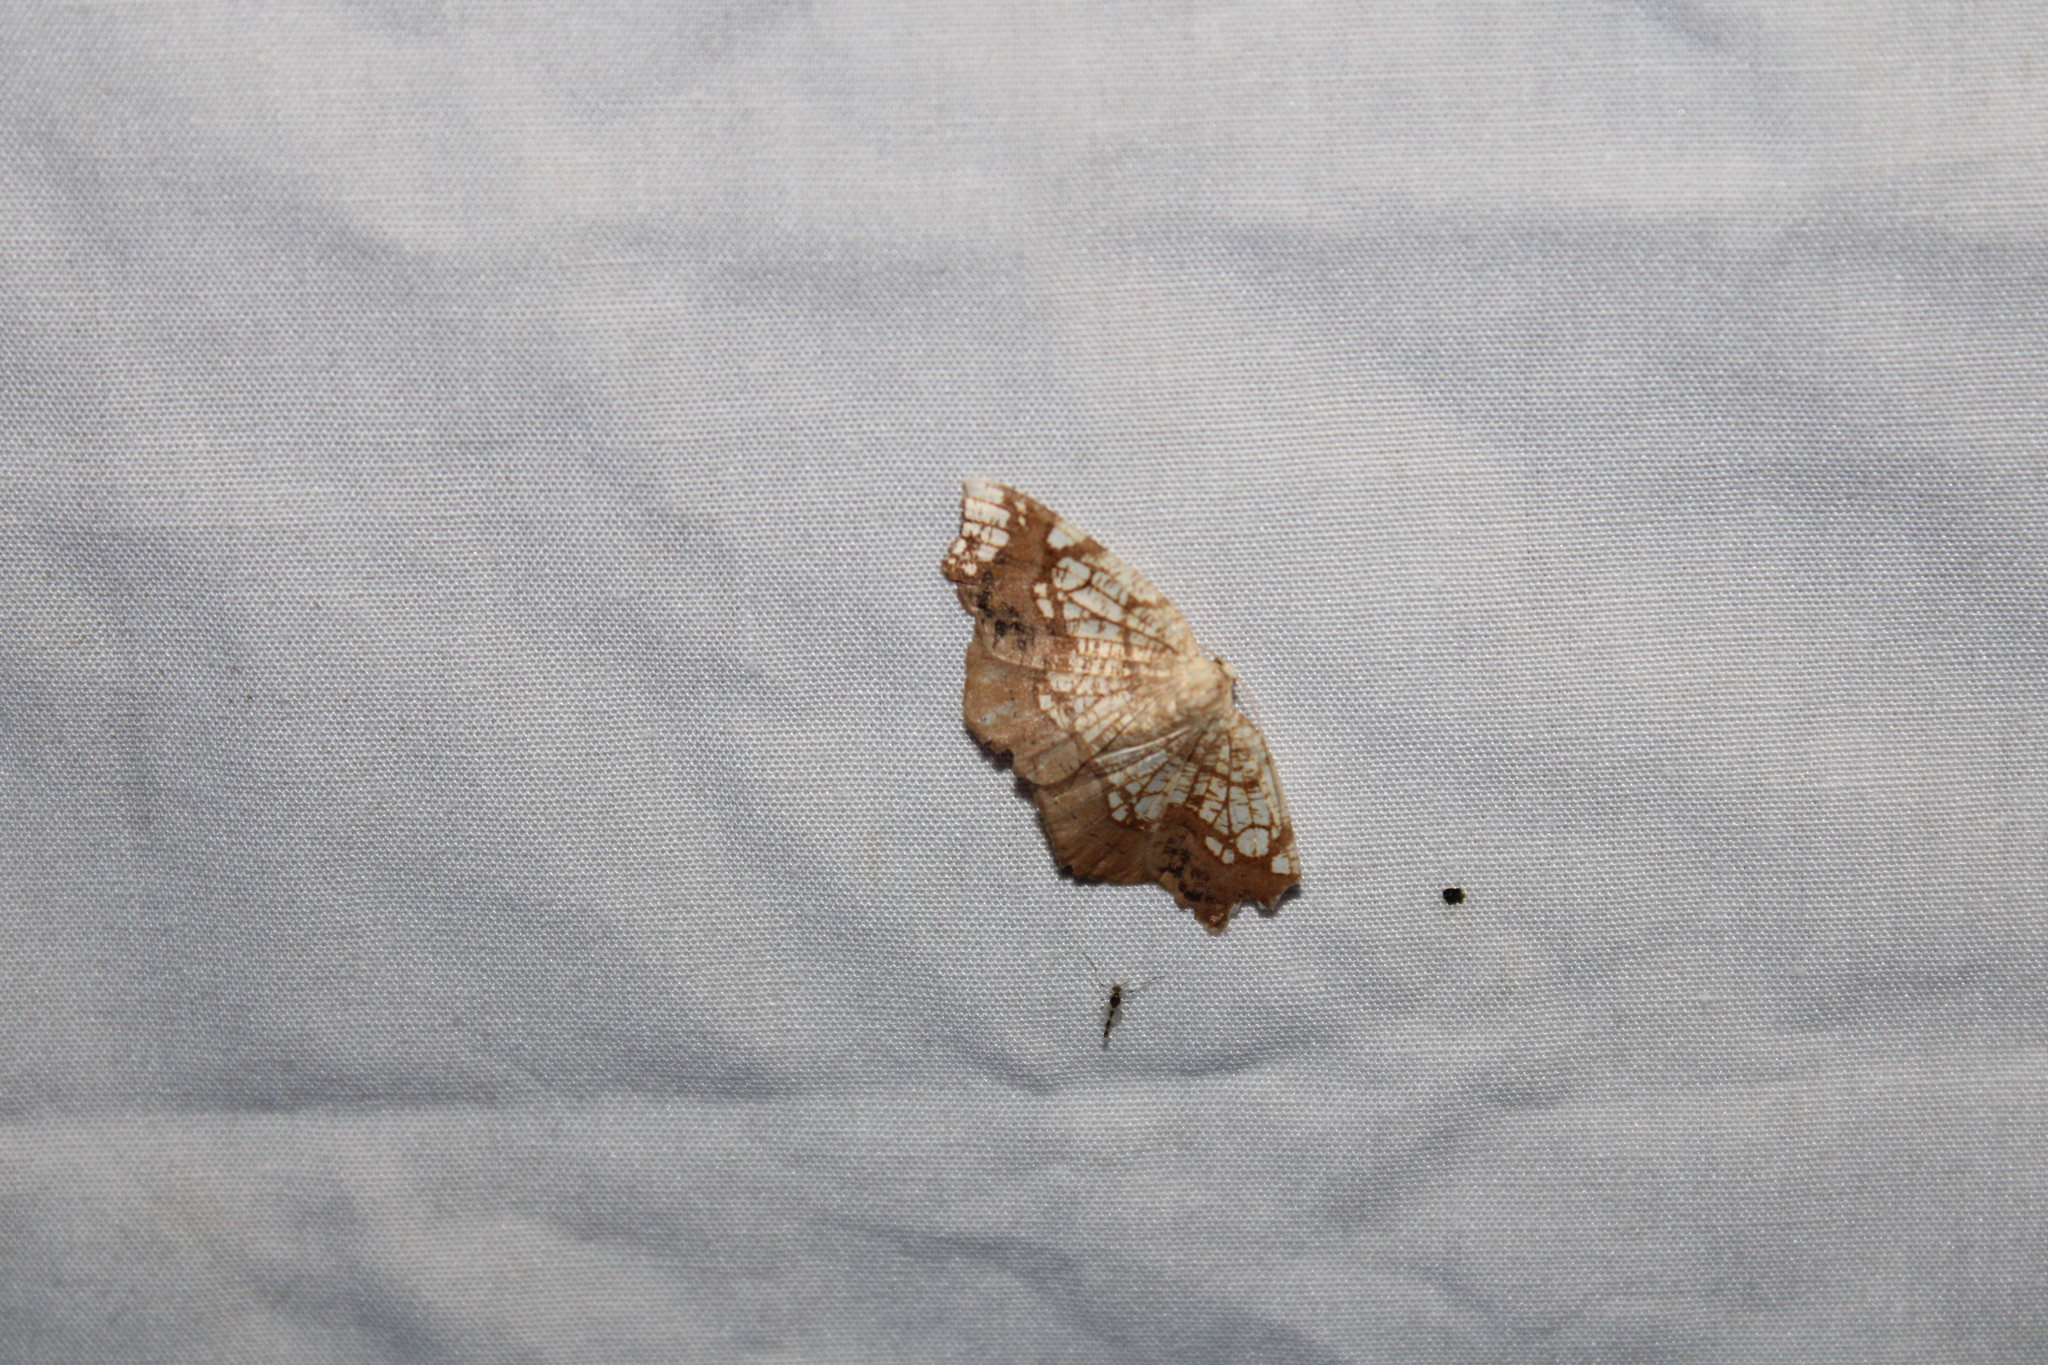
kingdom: Animalia
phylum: Arthropoda
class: Insecta
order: Lepidoptera
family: Geometridae
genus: Nematocampa
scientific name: Nematocampa resistaria
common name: Horned spanworm moth
